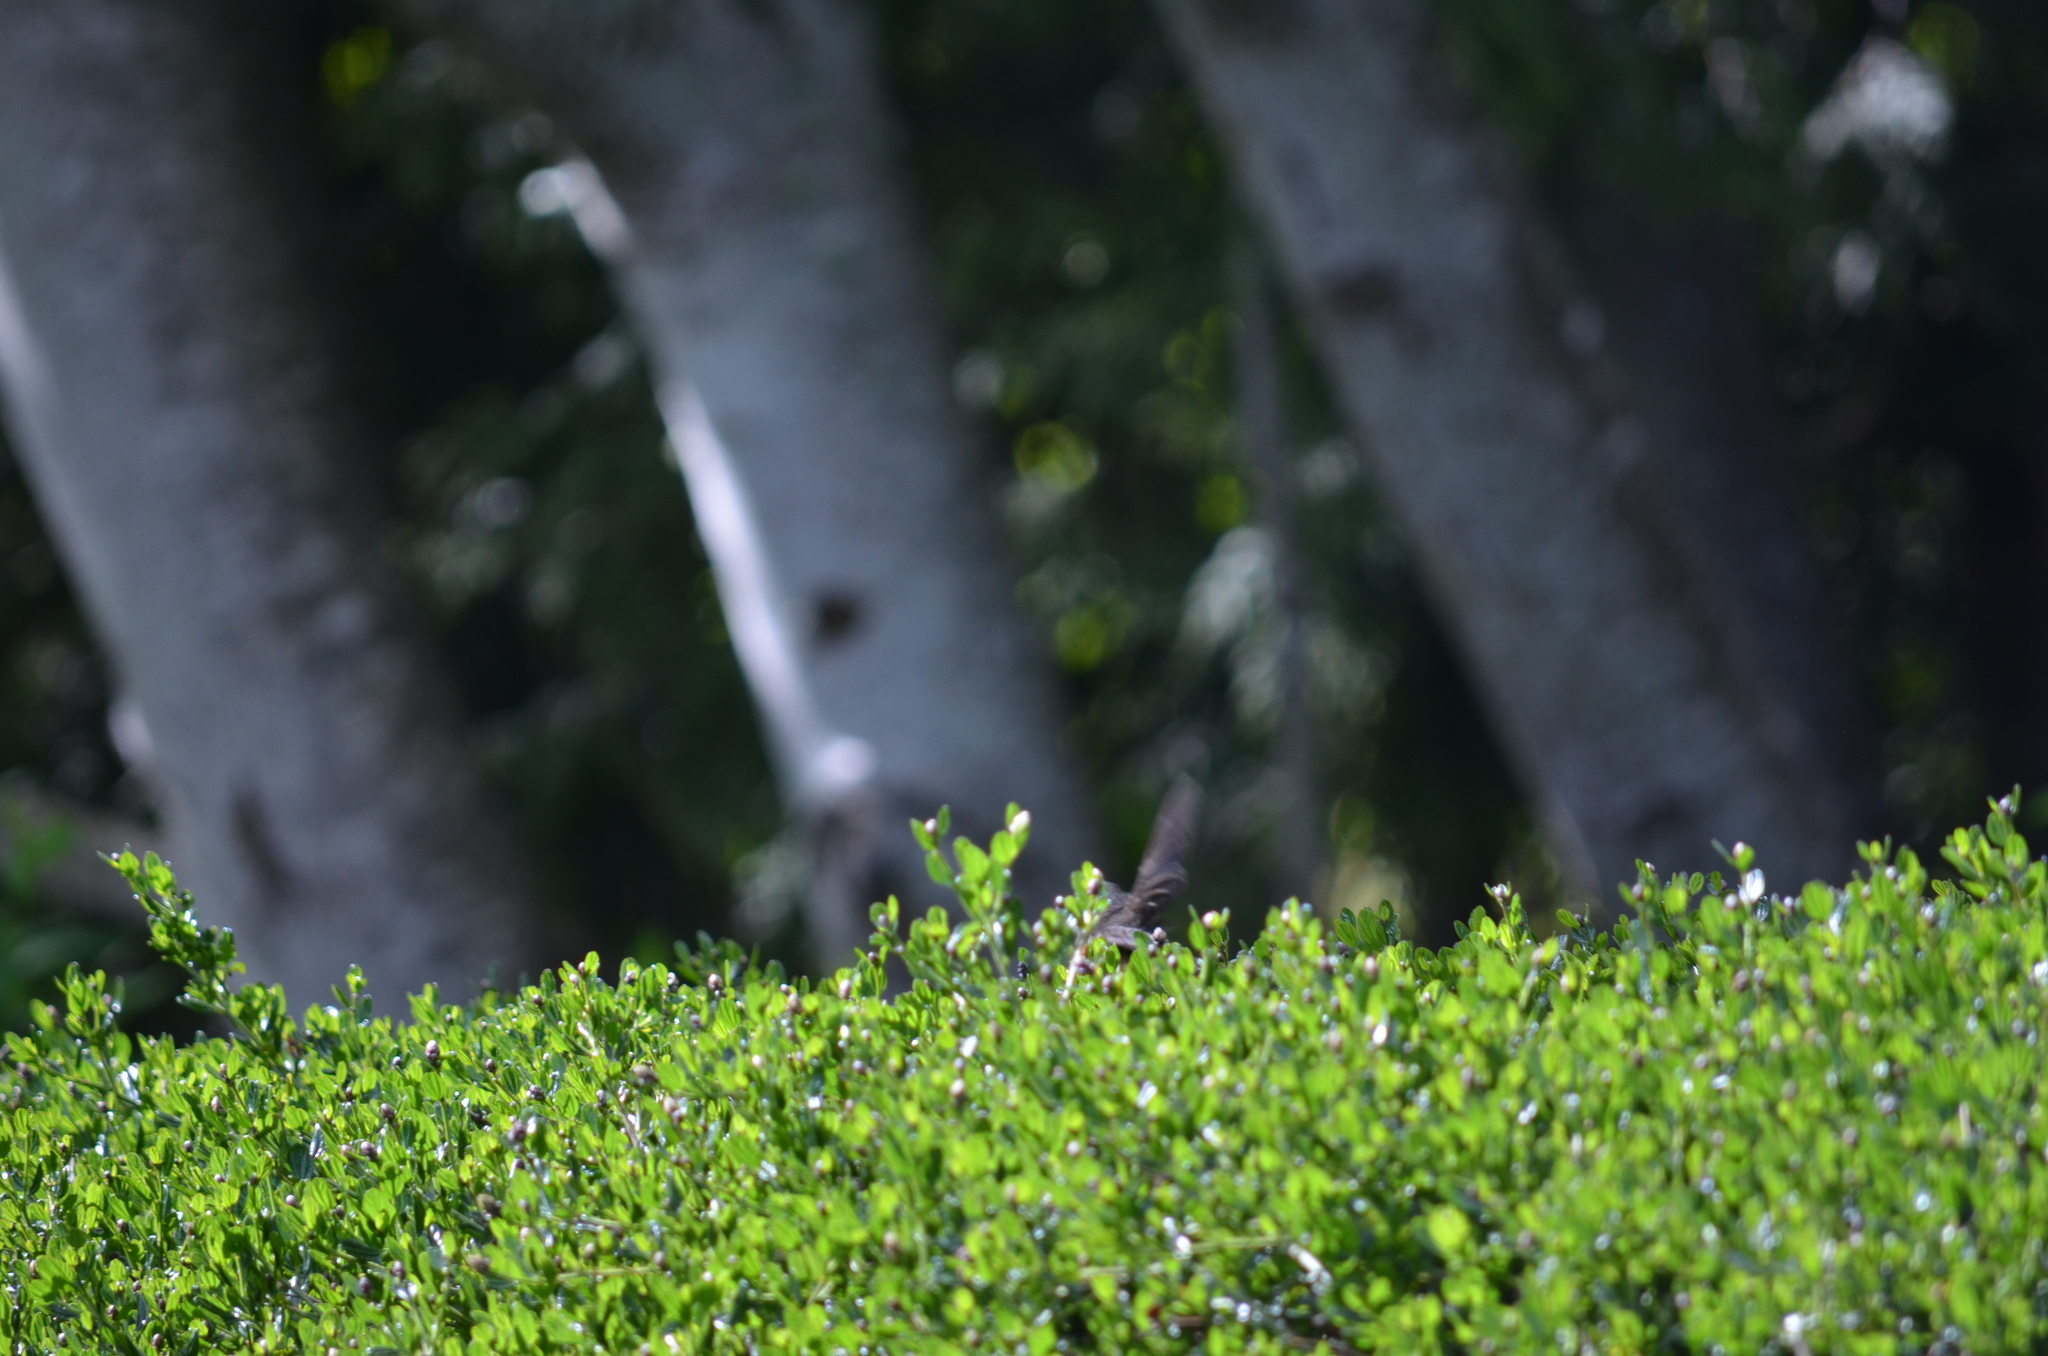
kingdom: Animalia
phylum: Chordata
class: Aves
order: Passeriformes
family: Passerellidae
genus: Pipilo
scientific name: Pipilo maculatus
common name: Spotted towhee
